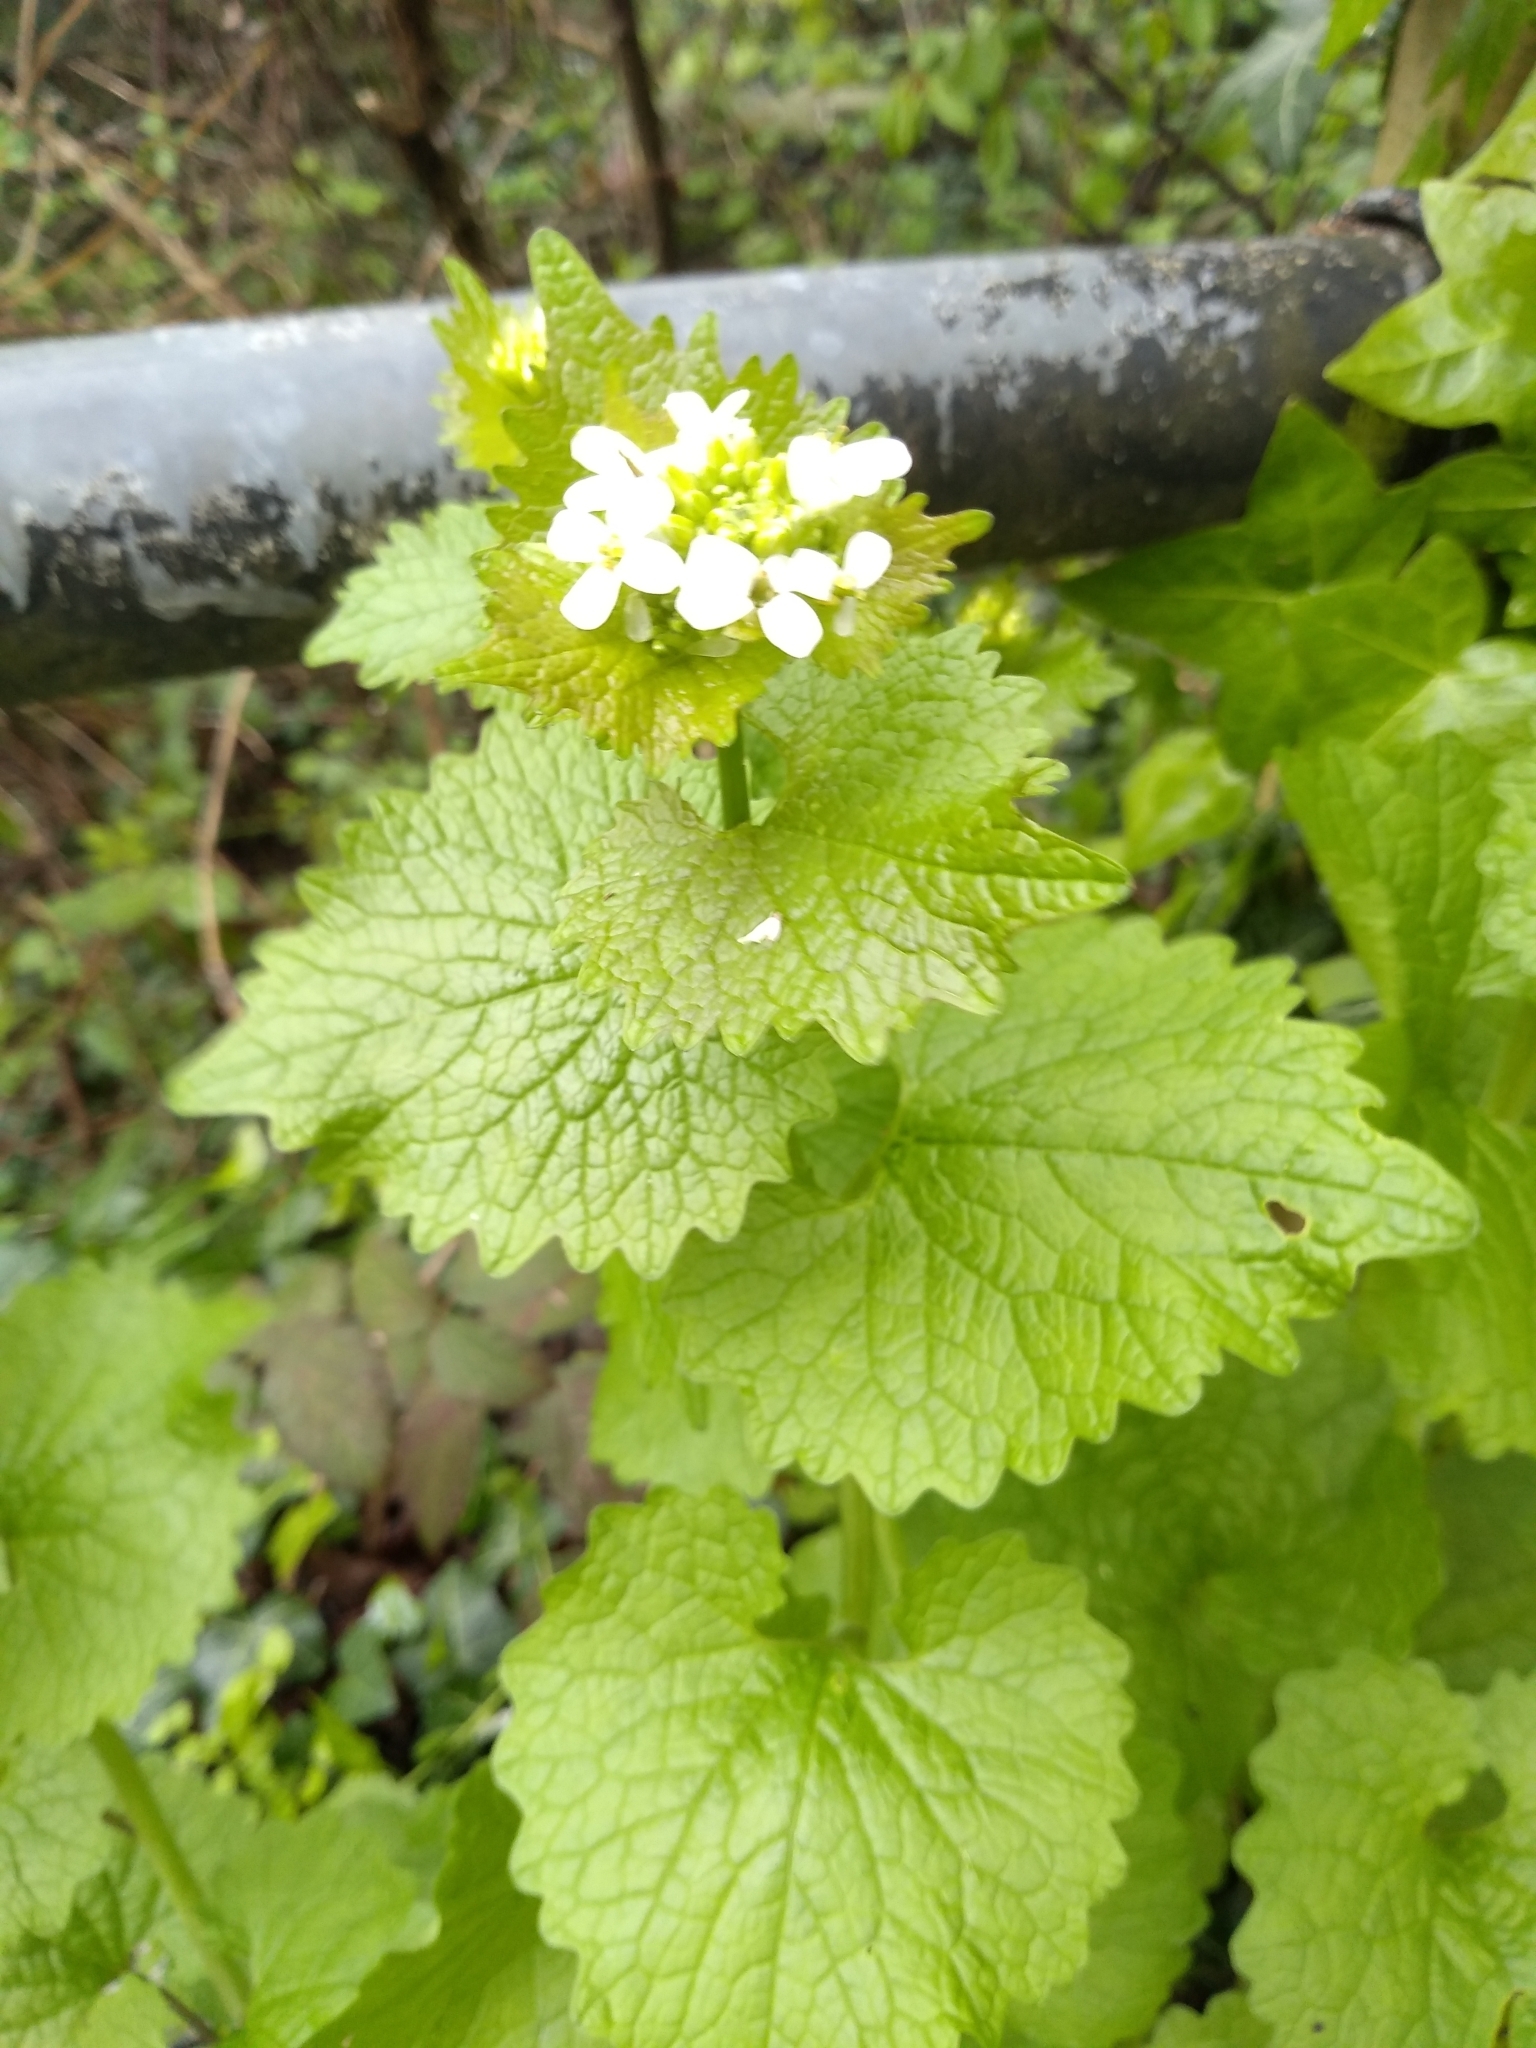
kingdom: Plantae
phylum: Tracheophyta
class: Magnoliopsida
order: Brassicales
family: Brassicaceae
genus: Alliaria
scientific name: Alliaria petiolata
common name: Garlic mustard
